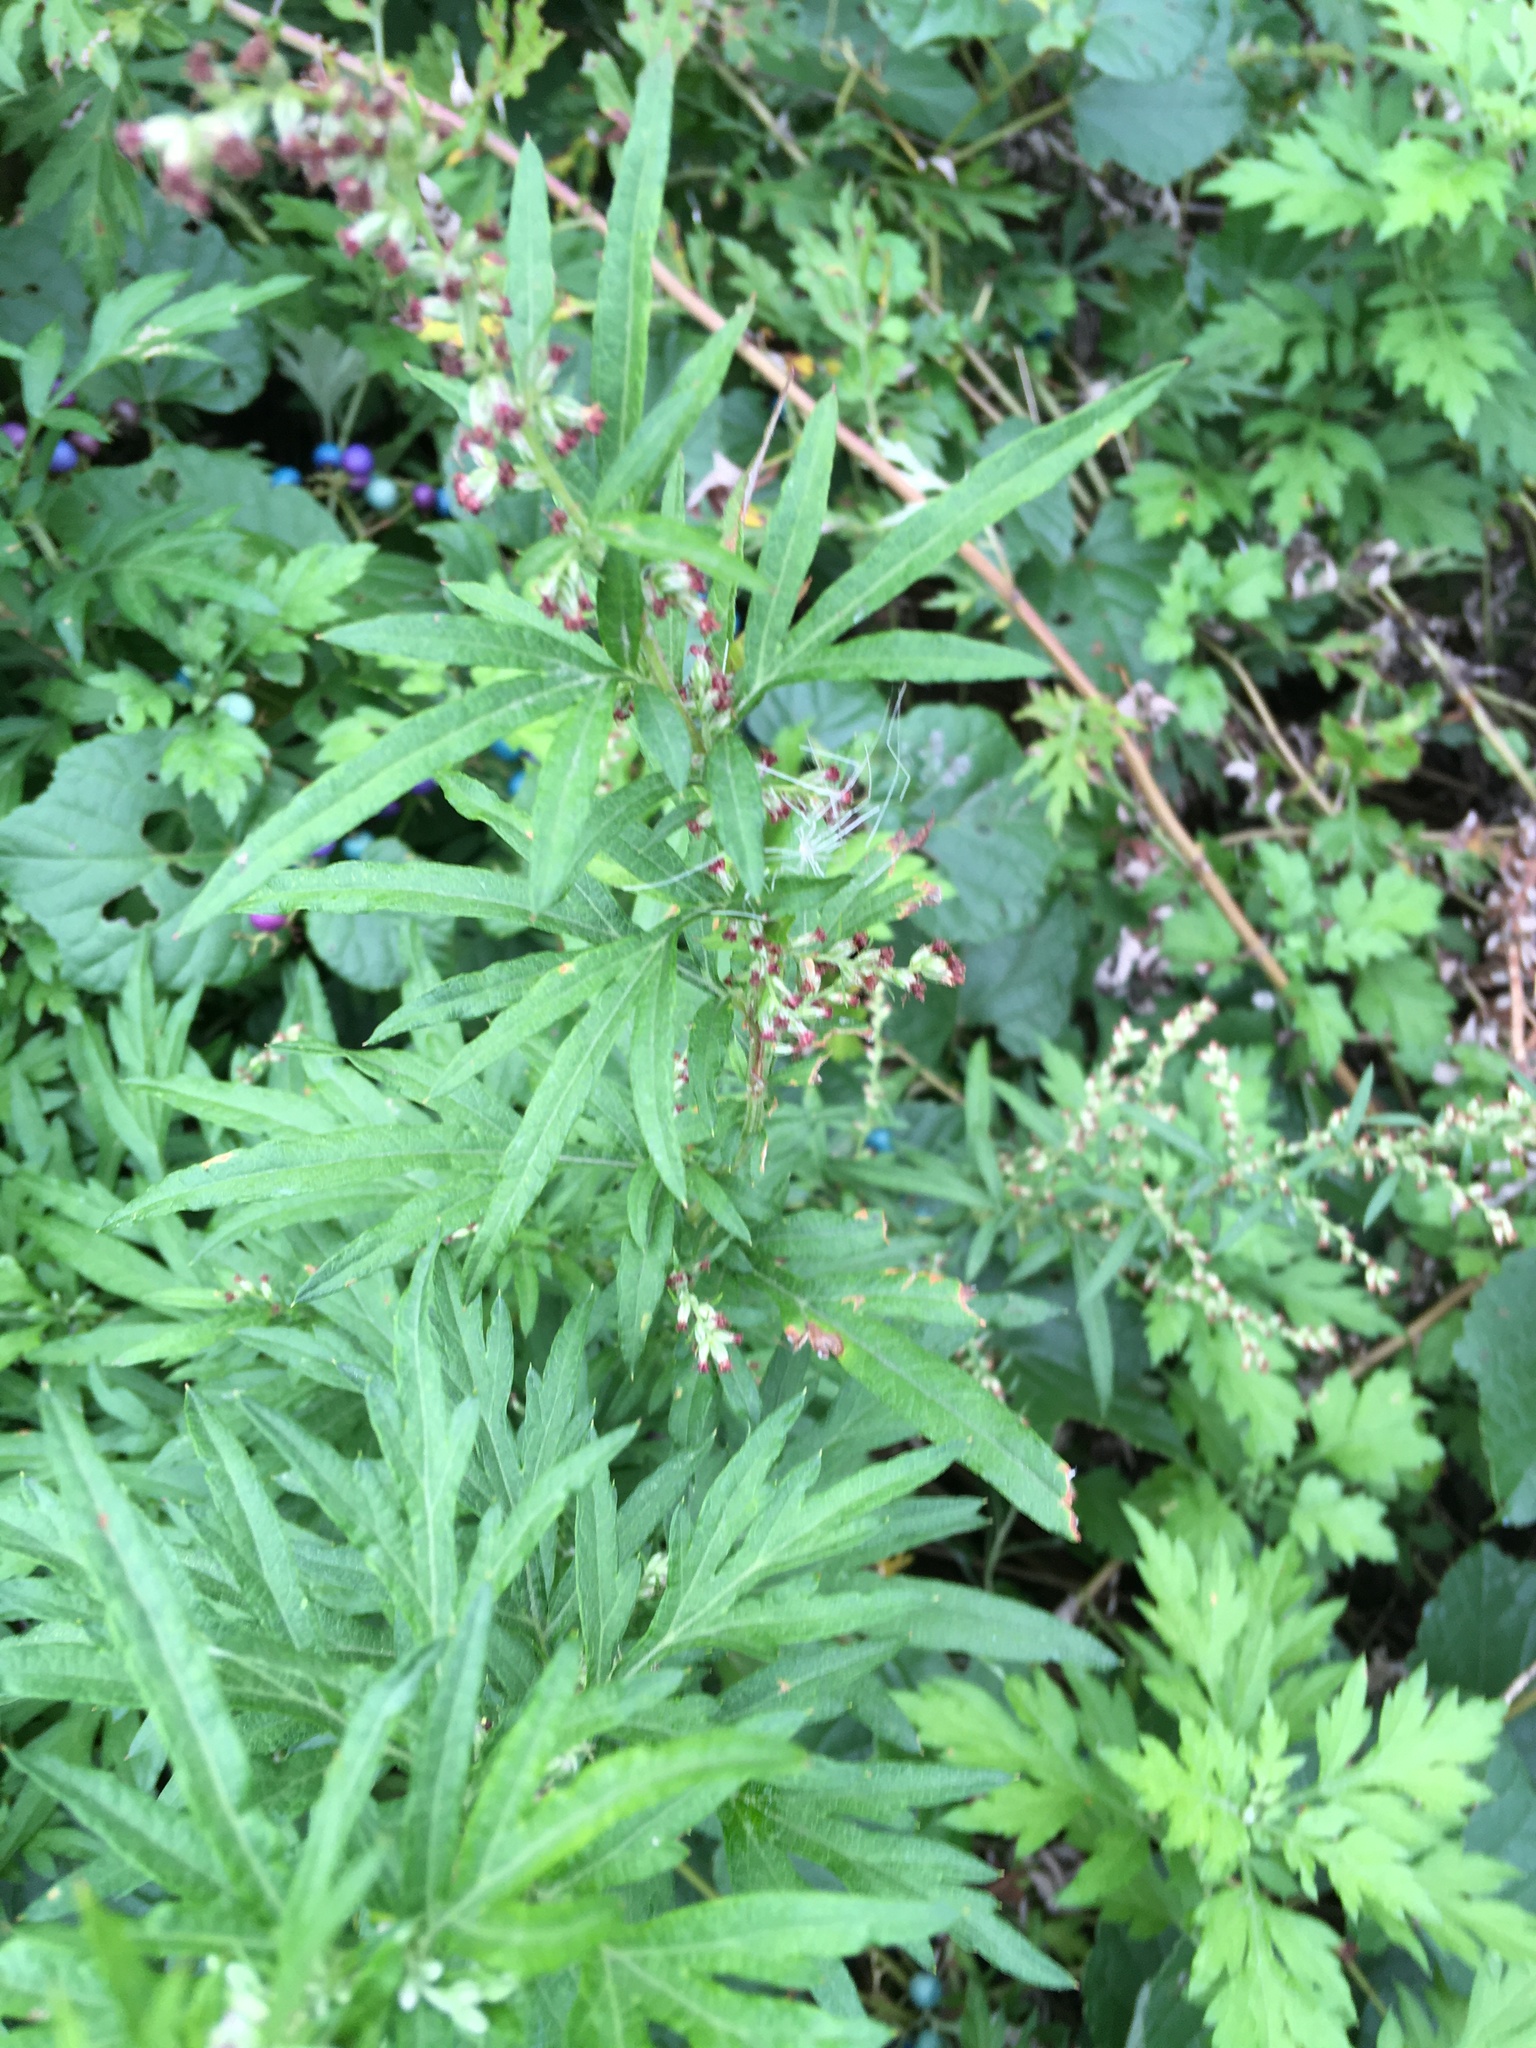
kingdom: Plantae
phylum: Tracheophyta
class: Magnoliopsida
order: Asterales
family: Asteraceae
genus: Artemisia
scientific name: Artemisia vulgaris
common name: Mugwort
